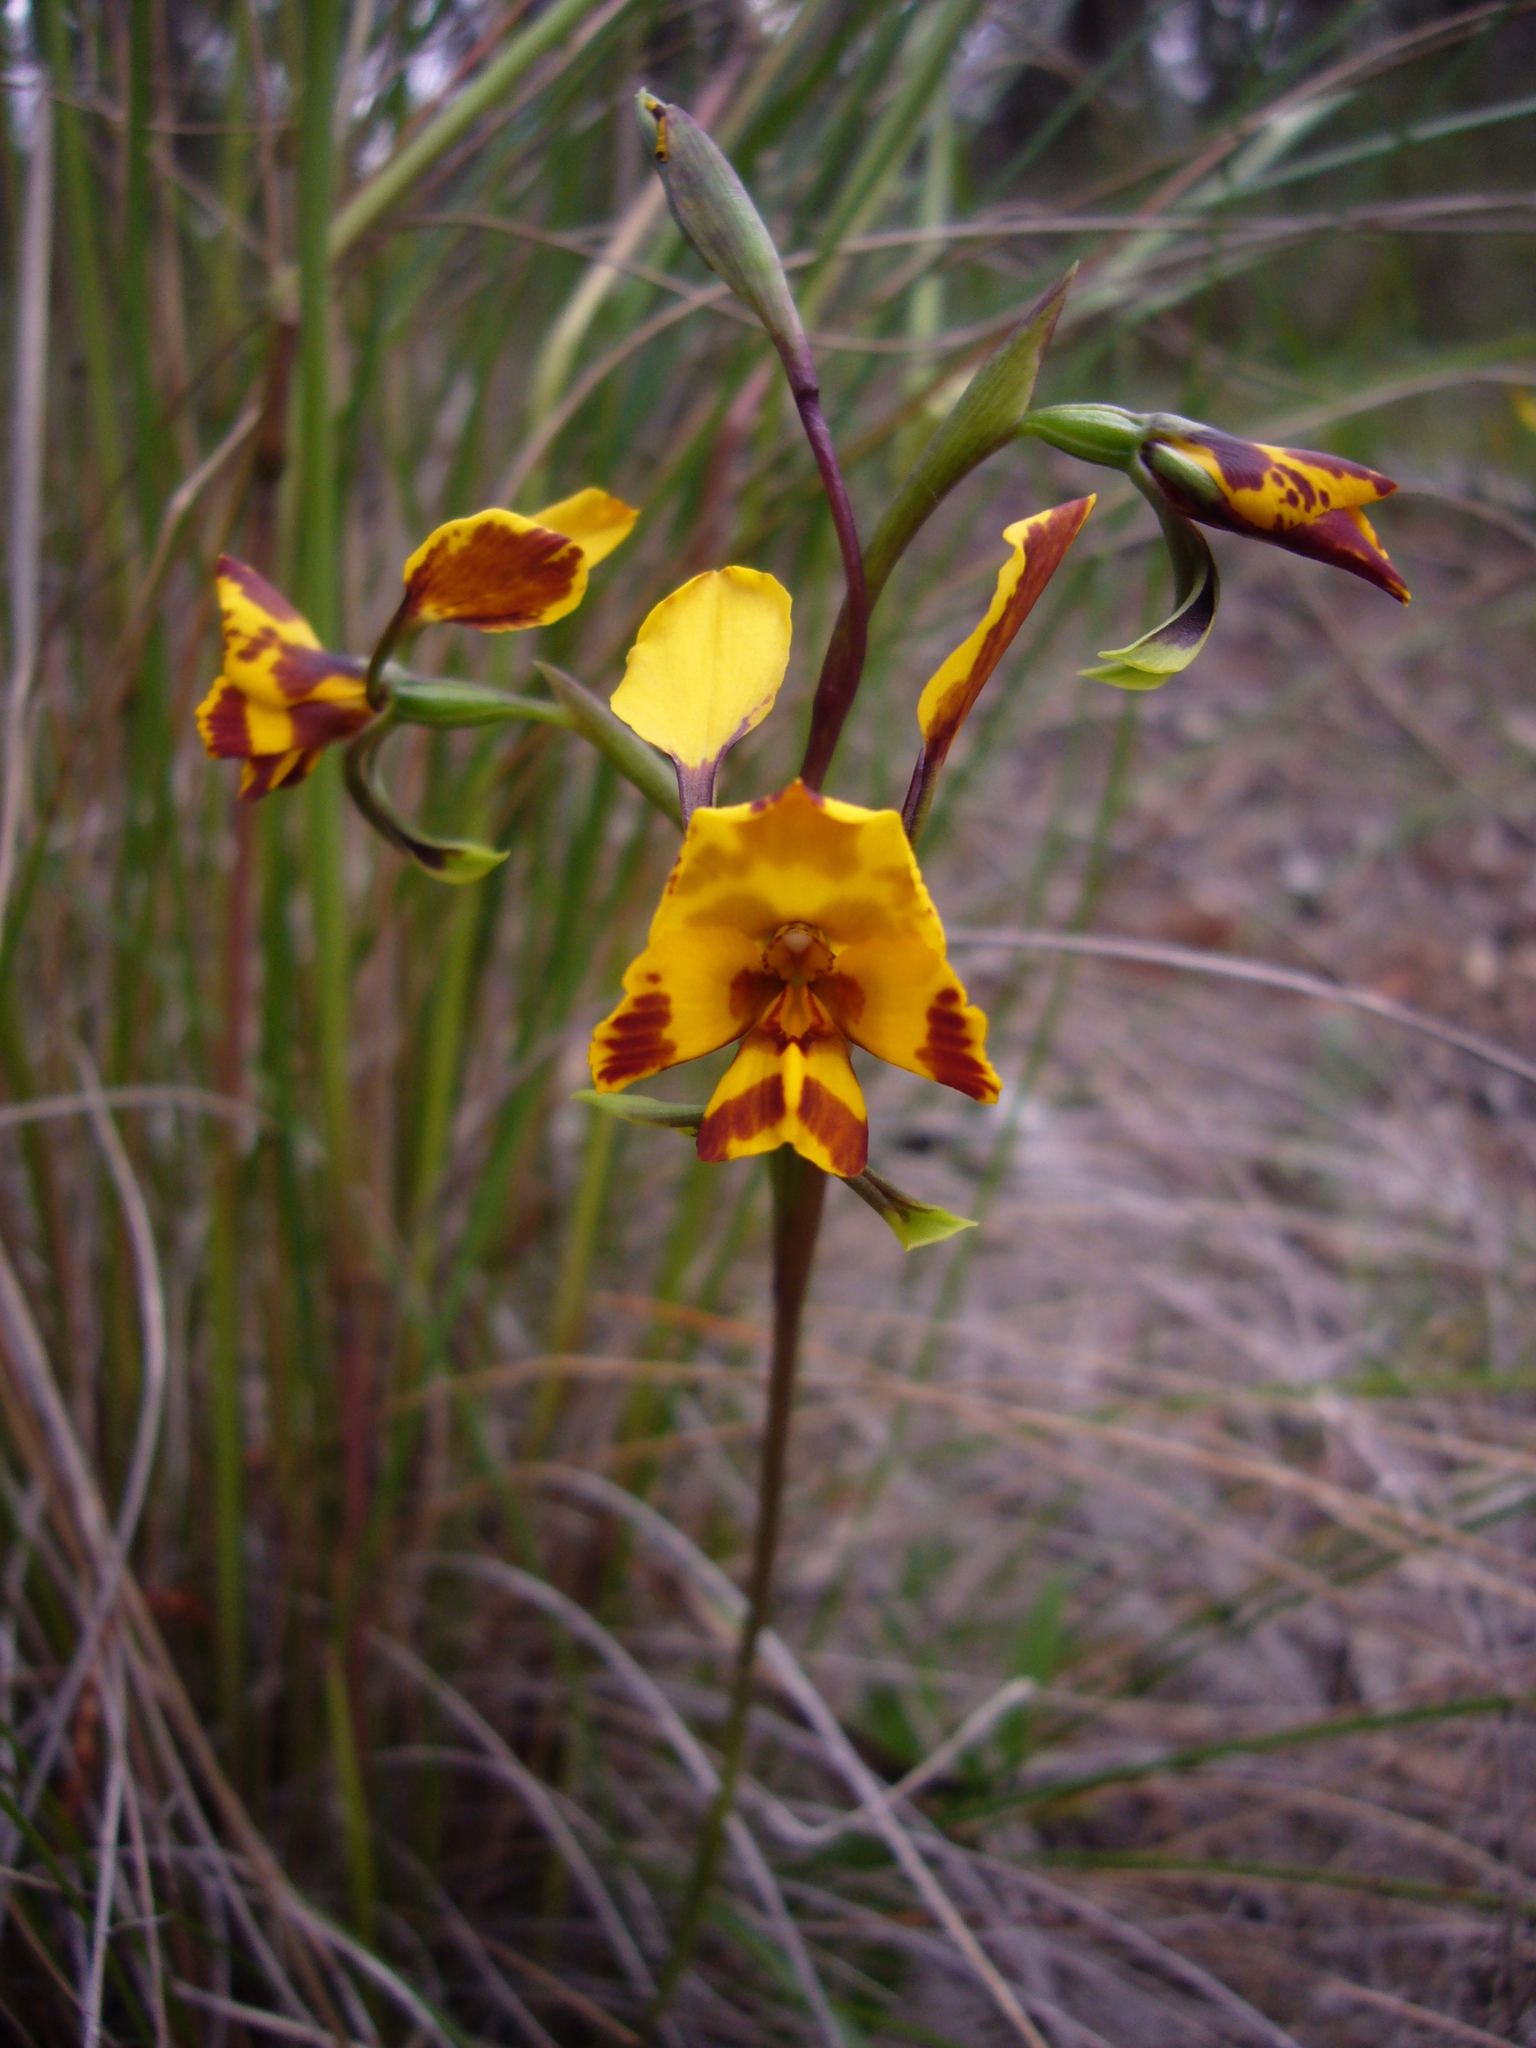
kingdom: Plantae
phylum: Tracheophyta
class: Liliopsida
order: Asparagales
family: Orchidaceae
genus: Diuris
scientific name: Diuris pardina
